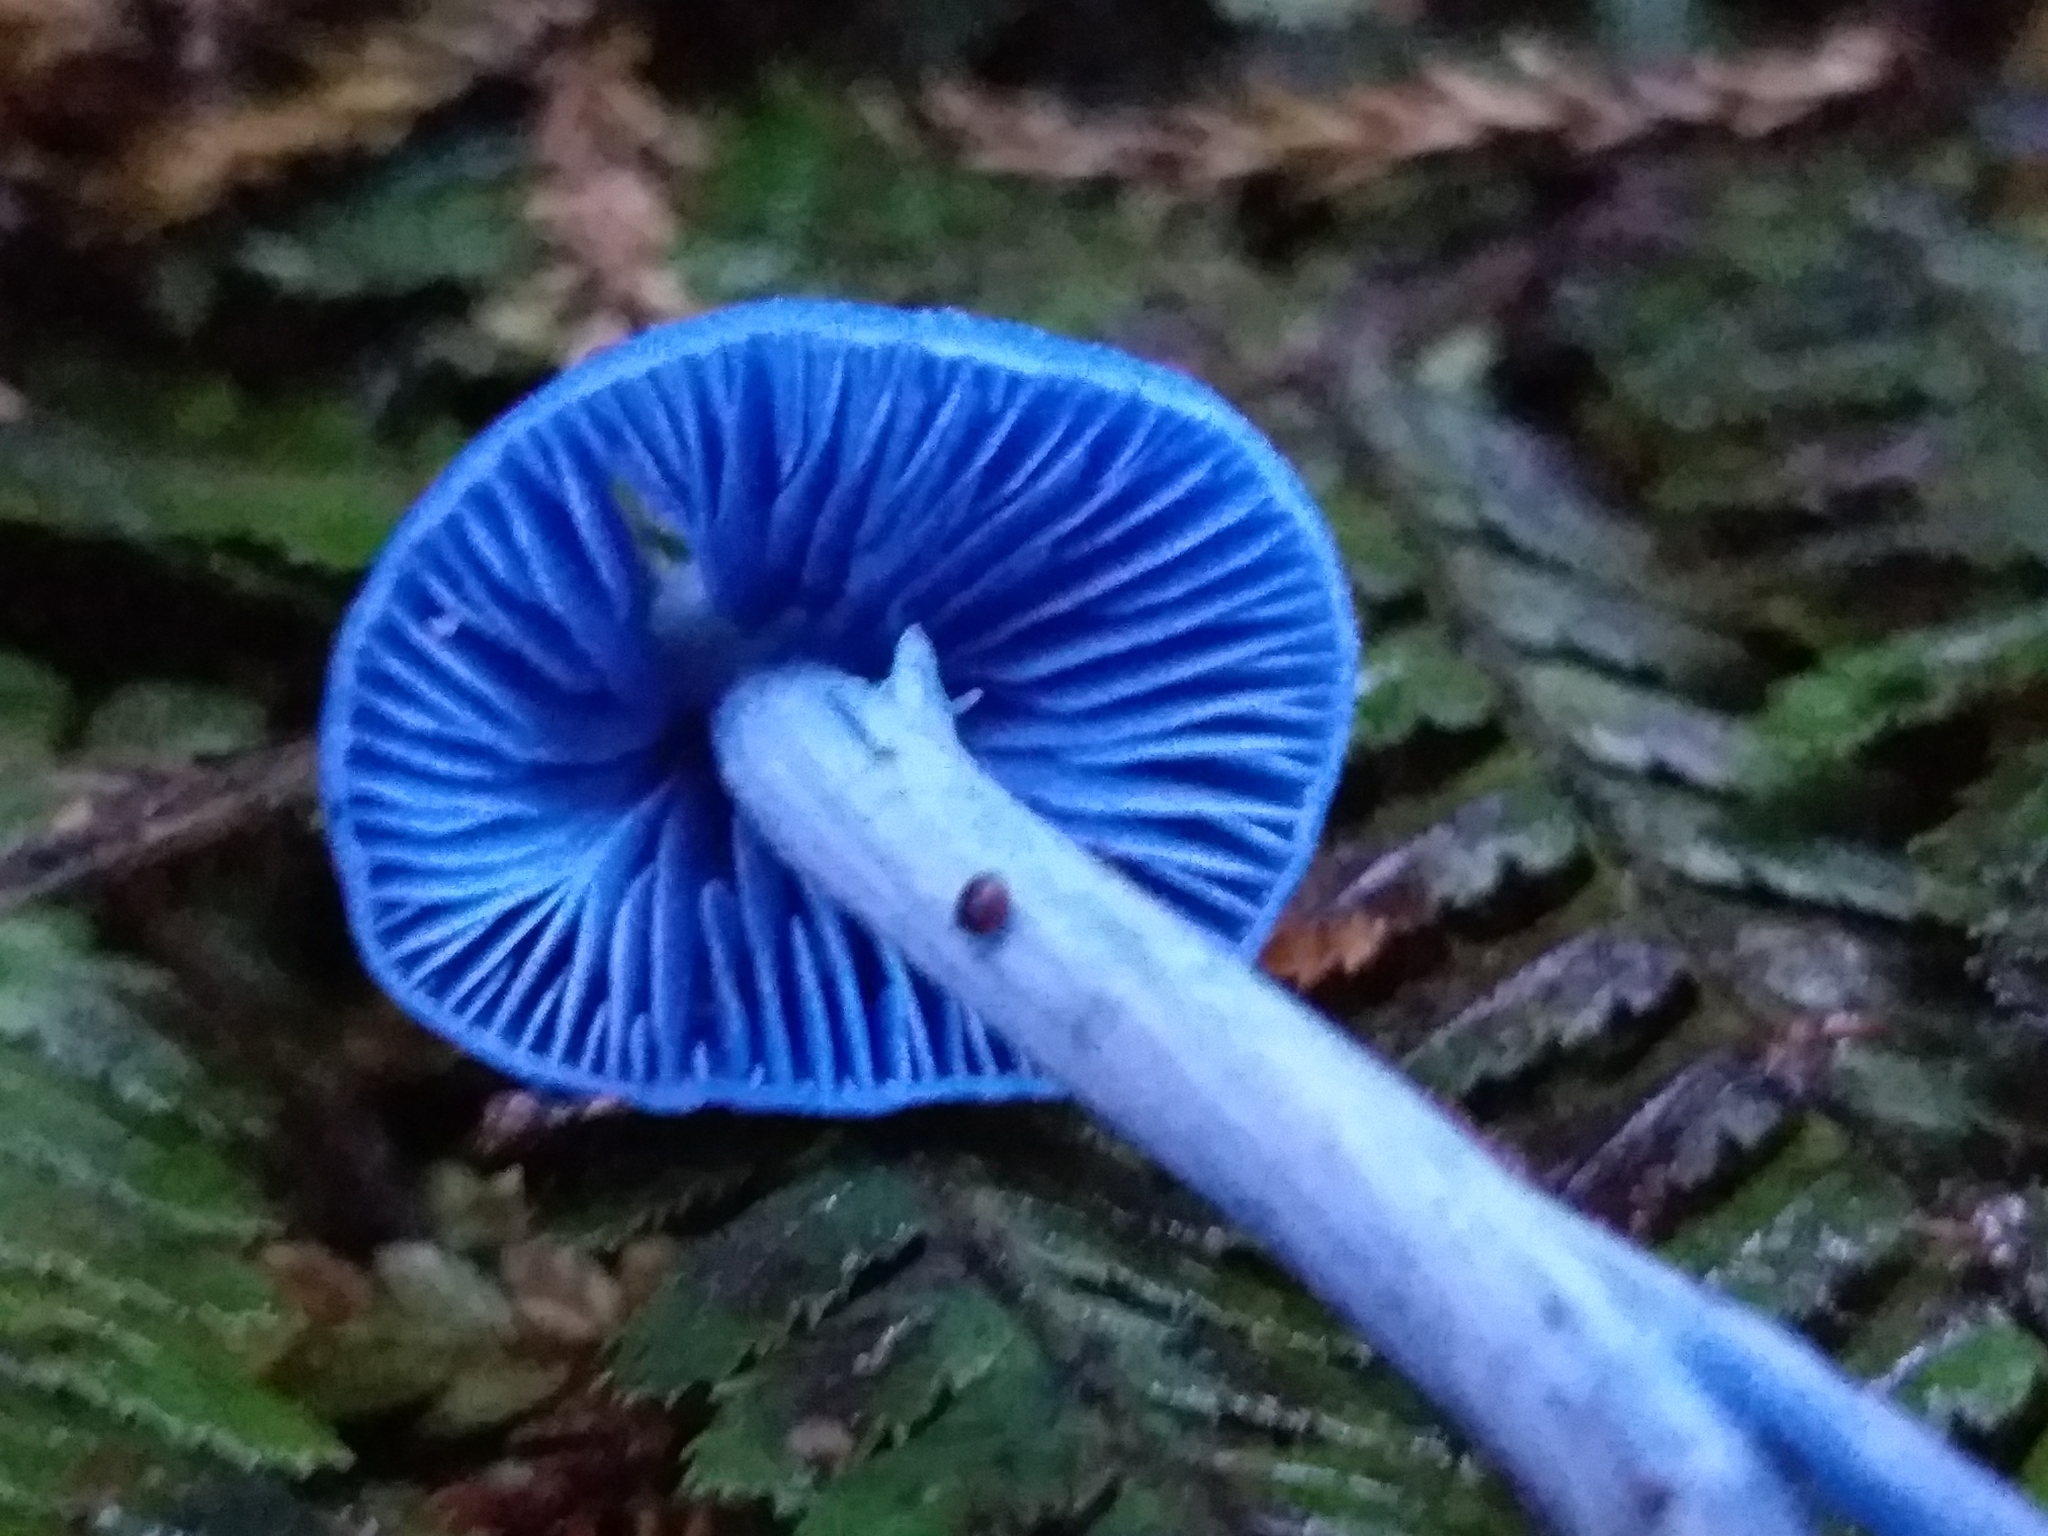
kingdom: Fungi
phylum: Basidiomycota
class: Agaricomycetes
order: Agaricales
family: Entolomataceae
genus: Entoloma
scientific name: Entoloma hochstetteri
